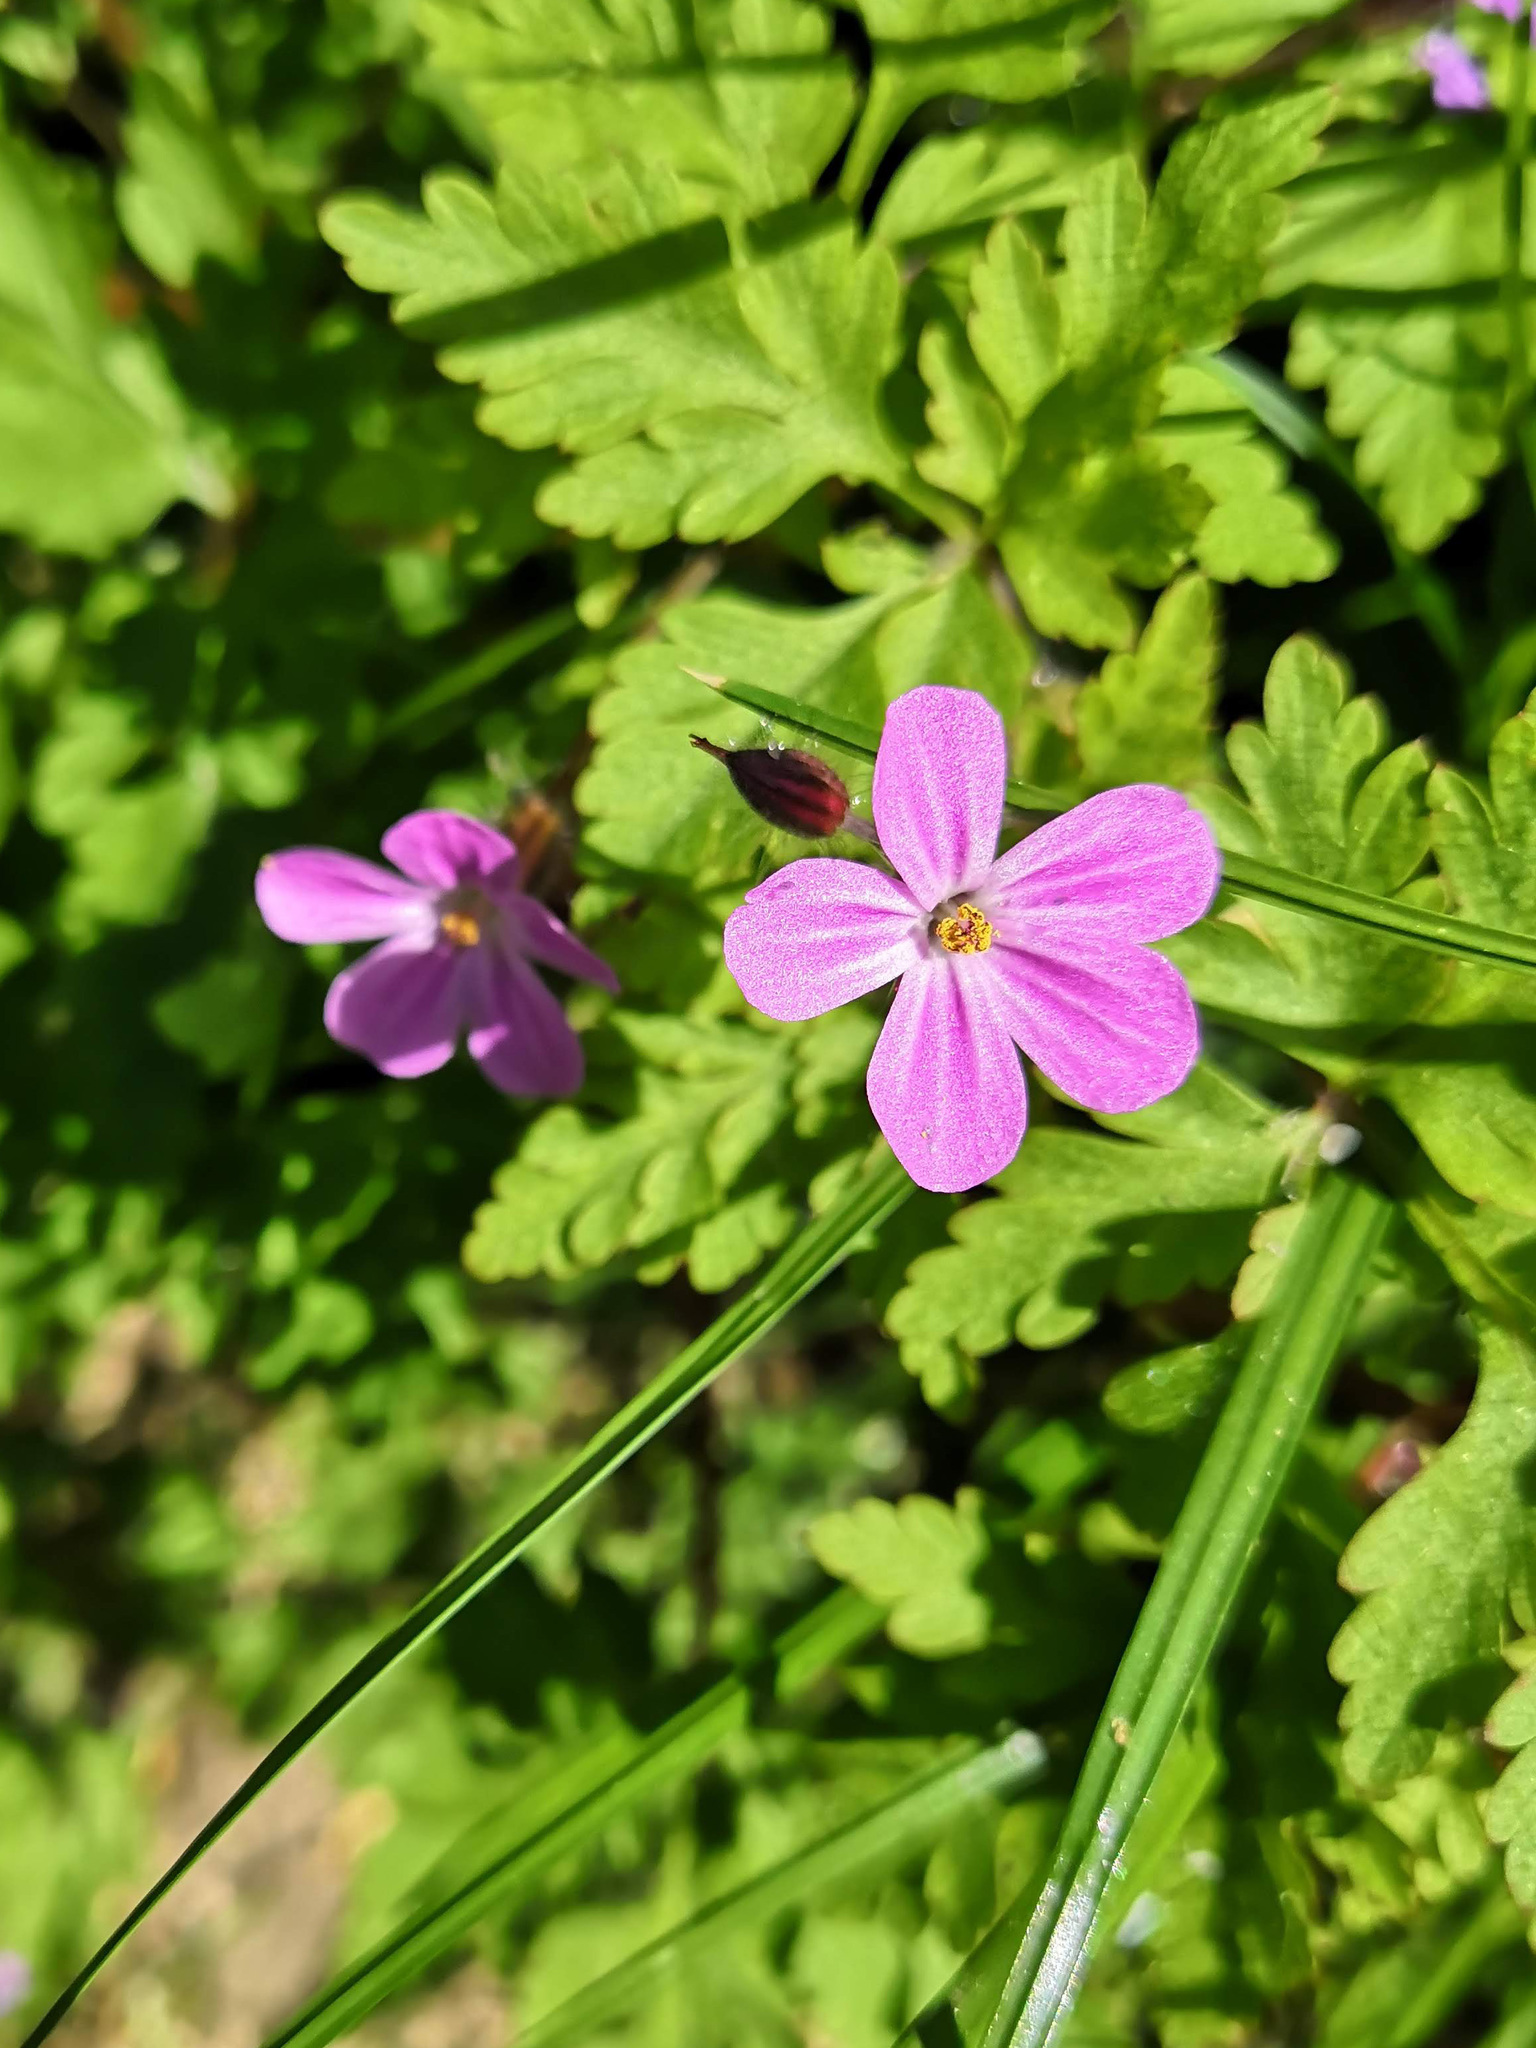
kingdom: Plantae
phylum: Tracheophyta
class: Magnoliopsida
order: Geraniales
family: Geraniaceae
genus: Geranium
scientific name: Geranium robertianum
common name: Herb-robert
